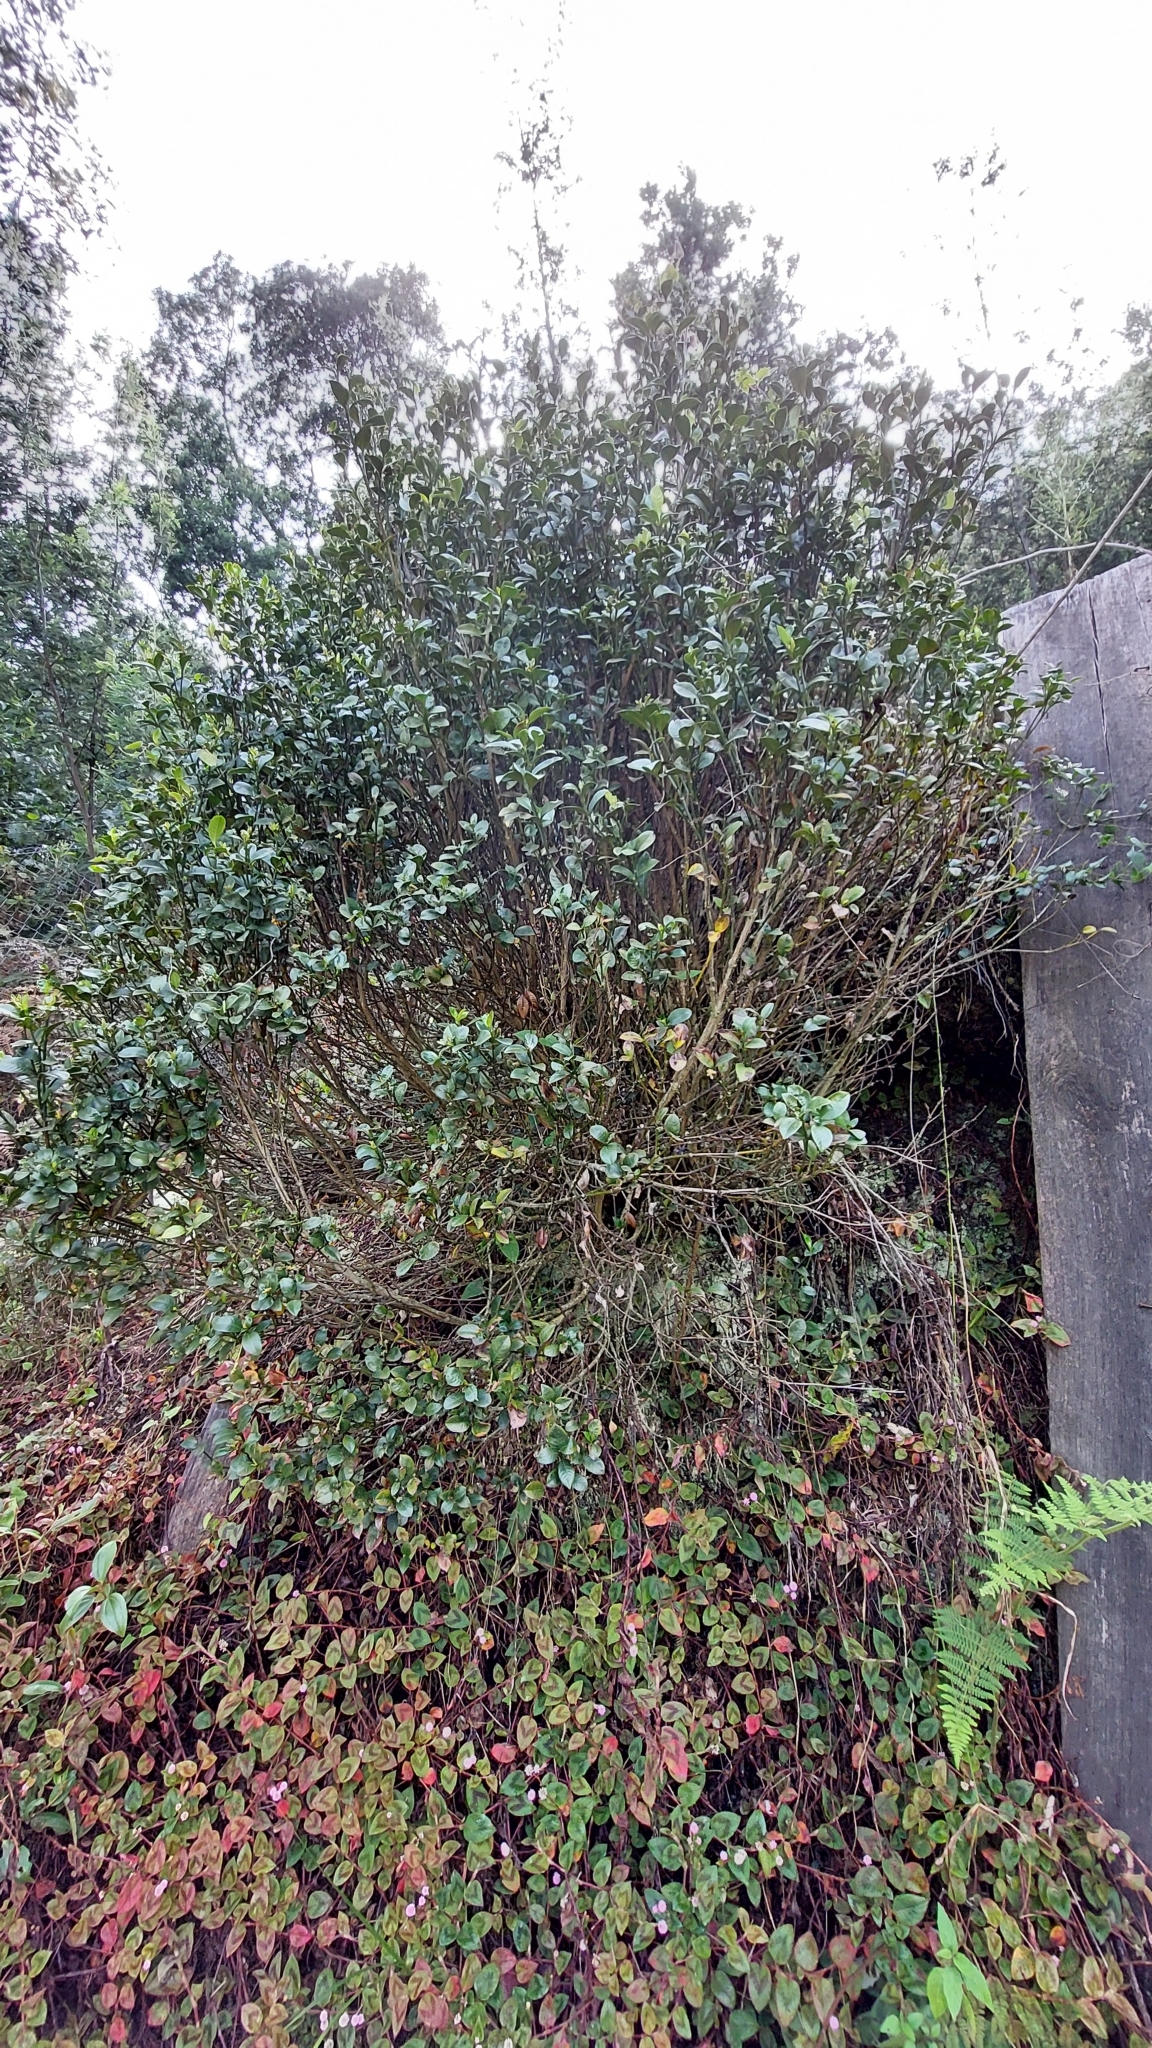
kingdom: Plantae
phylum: Tracheophyta
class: Magnoliopsida
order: Gentianales
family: Rubiaceae
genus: Palicourea
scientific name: Palicourea boqueronensis
